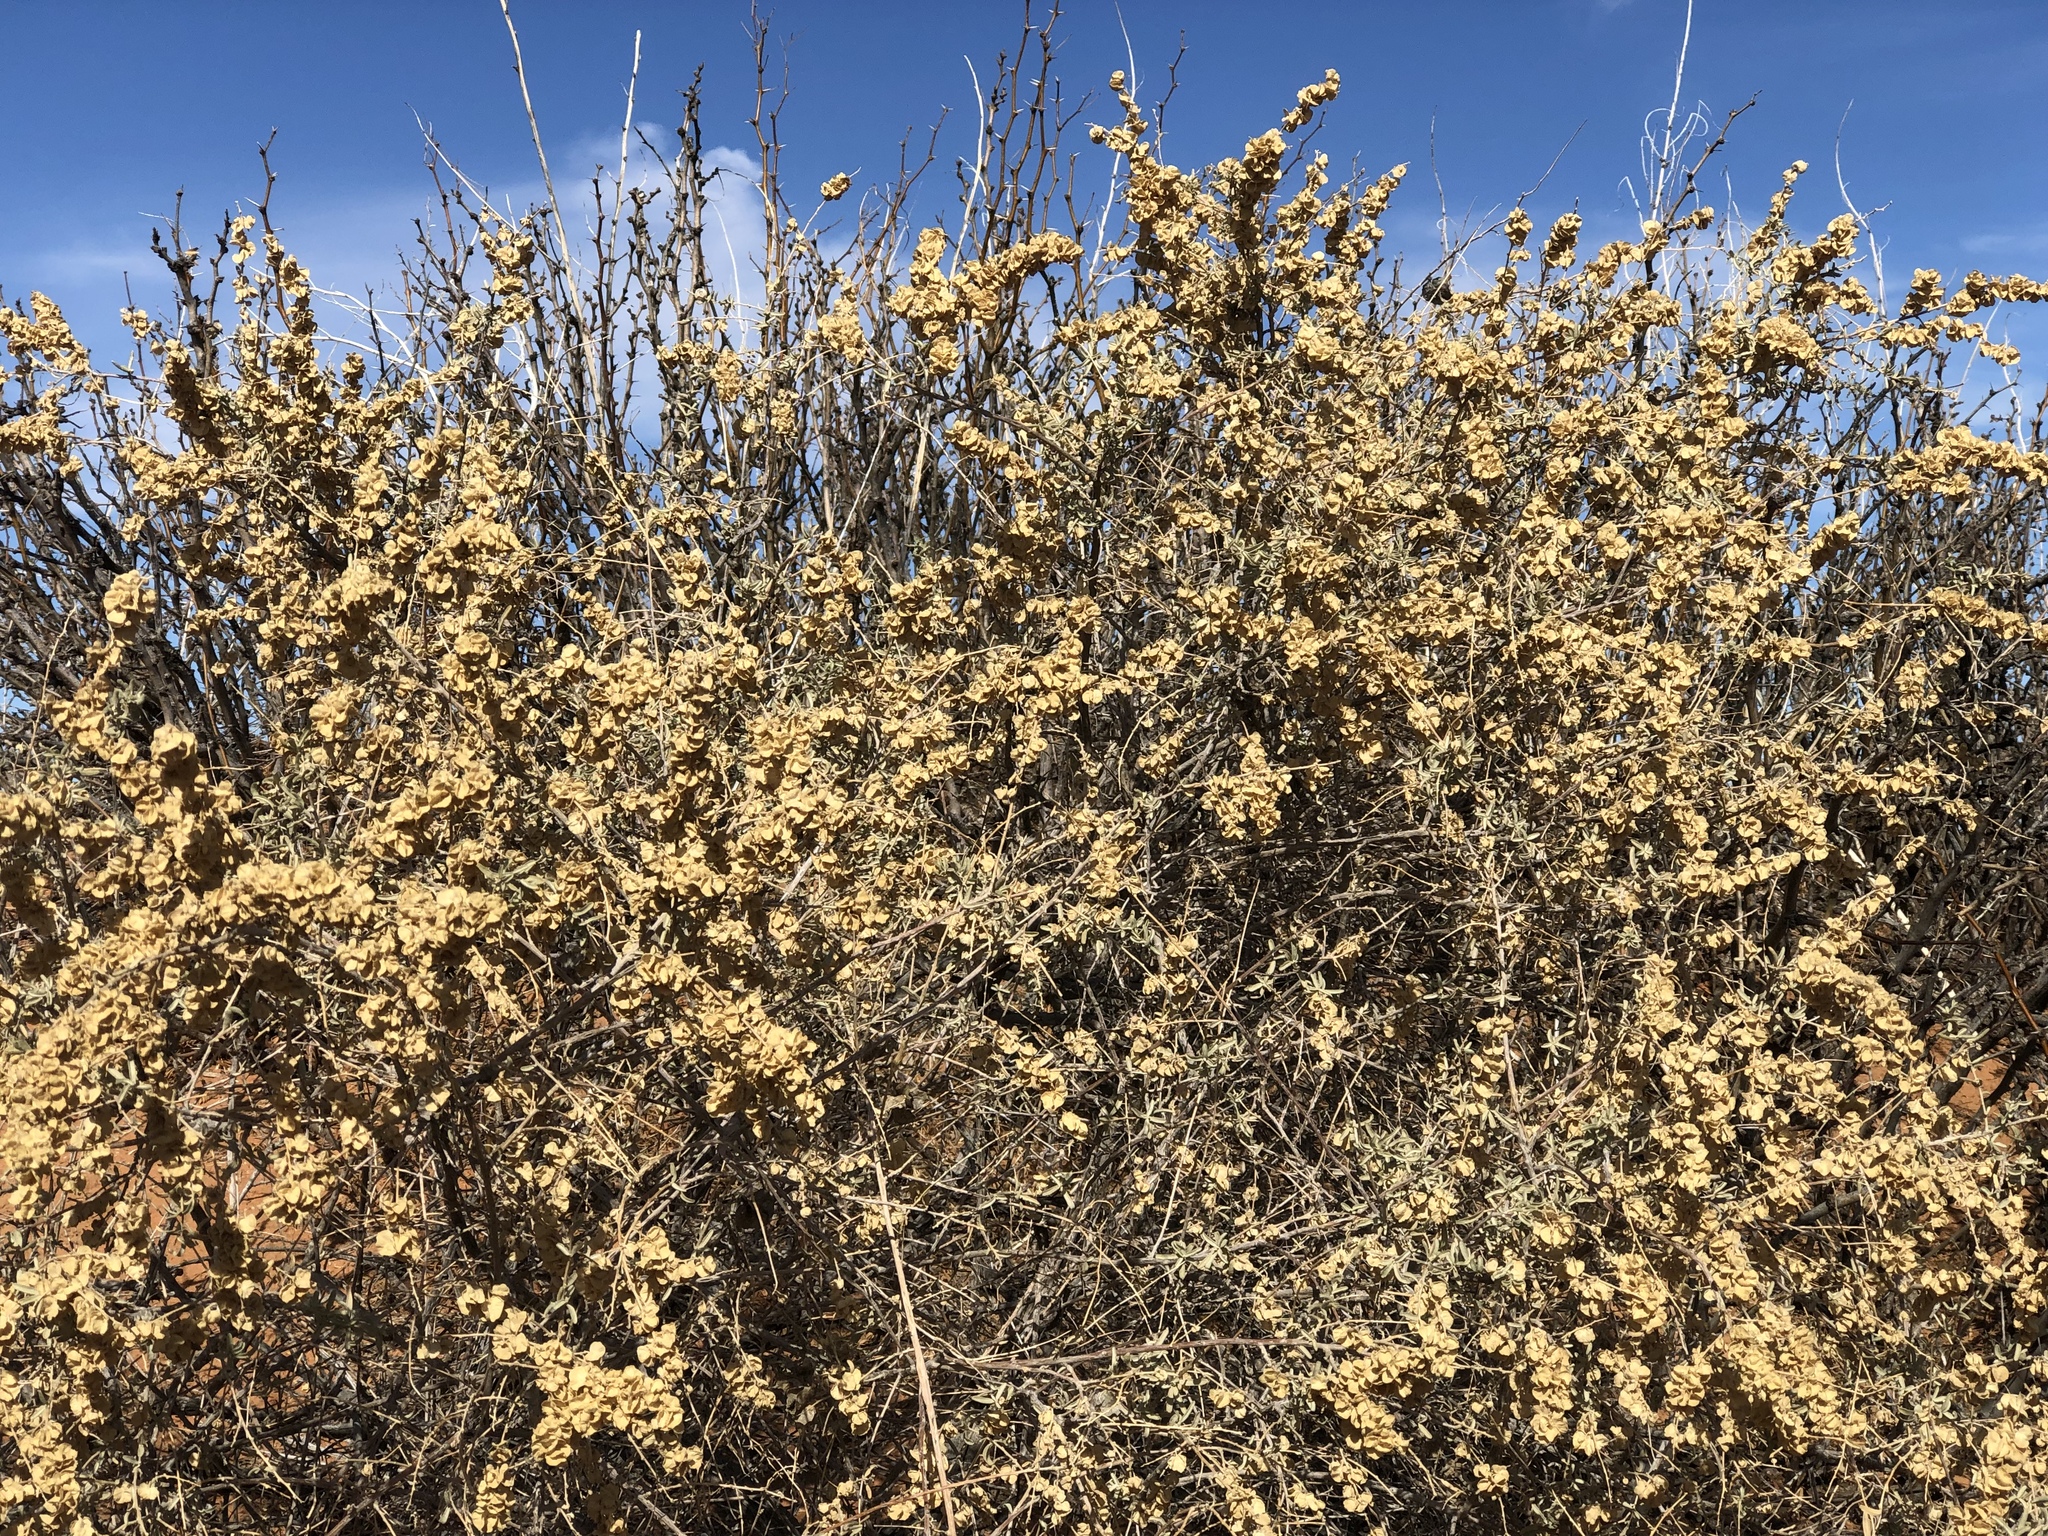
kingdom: Plantae
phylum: Tracheophyta
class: Magnoliopsida
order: Caryophyllales
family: Amaranthaceae
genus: Atriplex
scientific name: Atriplex canescens
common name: Four-wing saltbush
